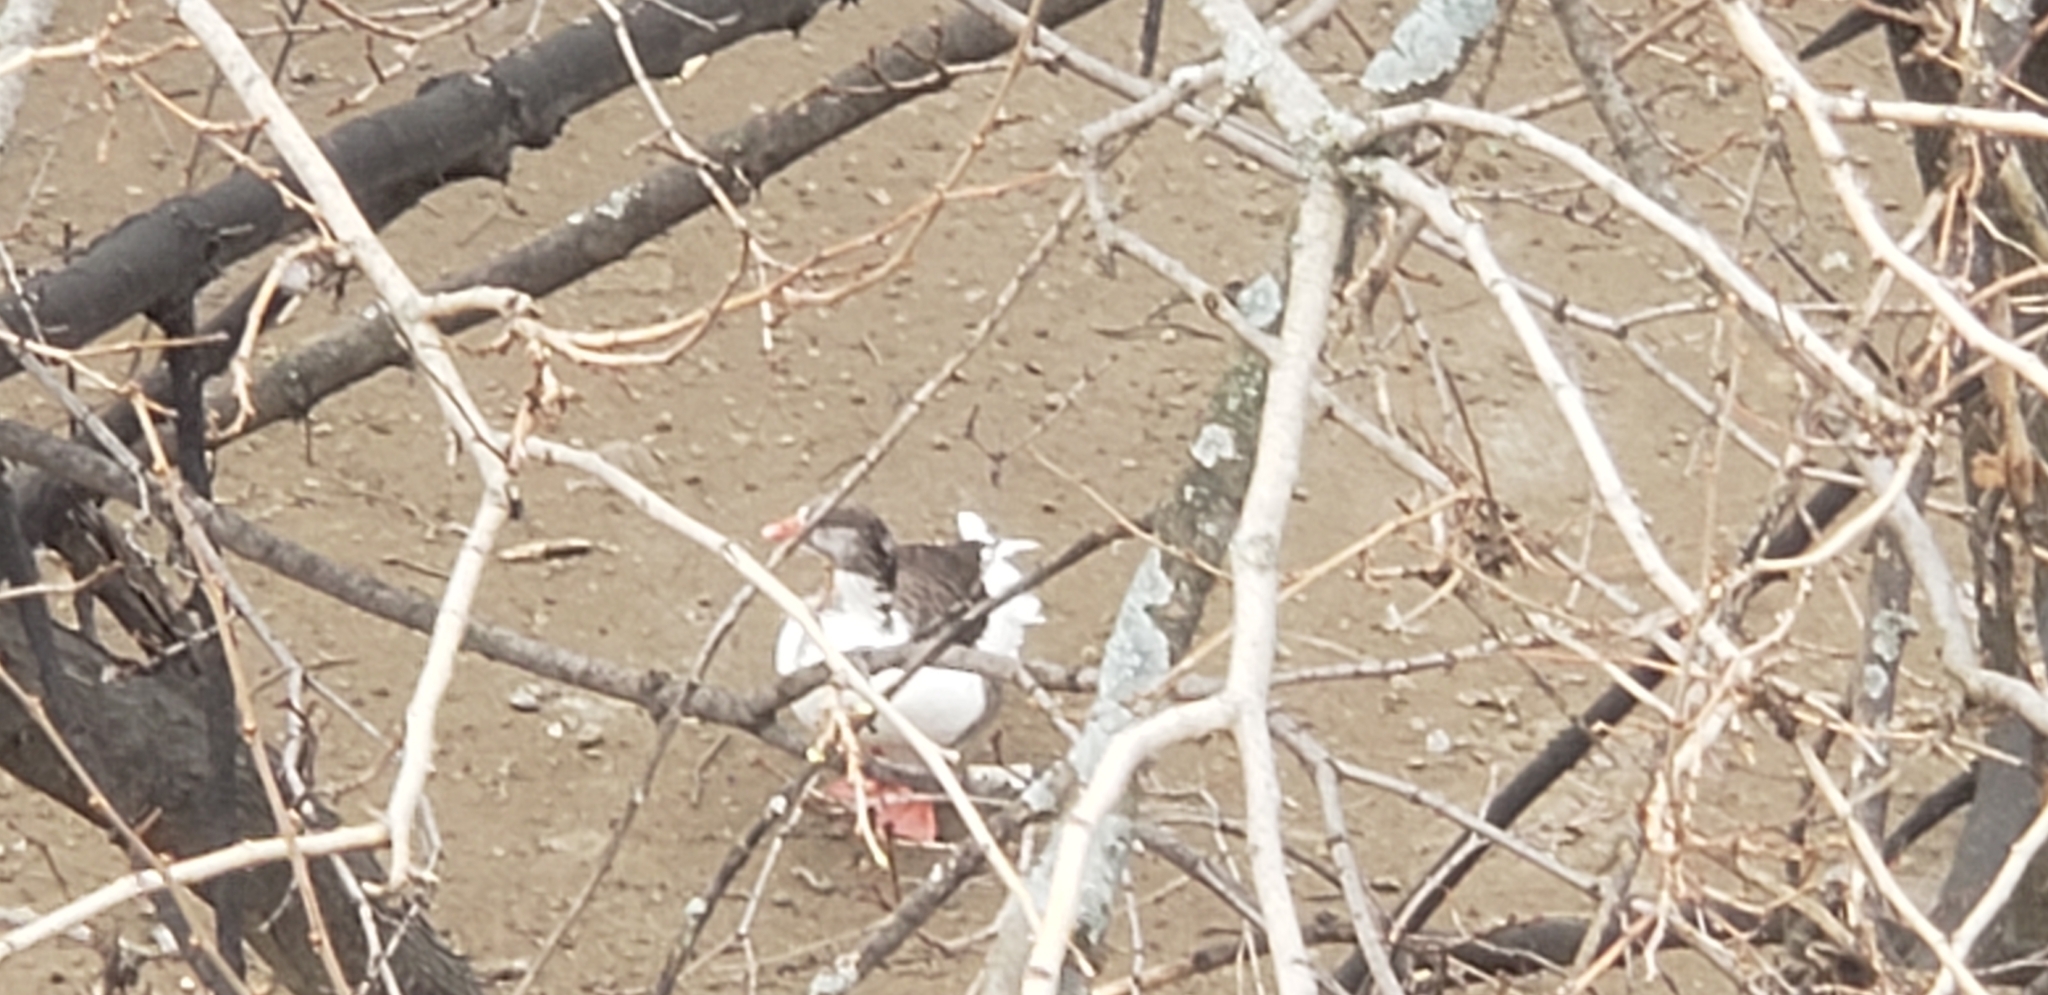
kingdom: Animalia
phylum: Chordata
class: Aves
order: Anseriformes
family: Anatidae
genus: Anser
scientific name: Anser anser
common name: Greylag goose
